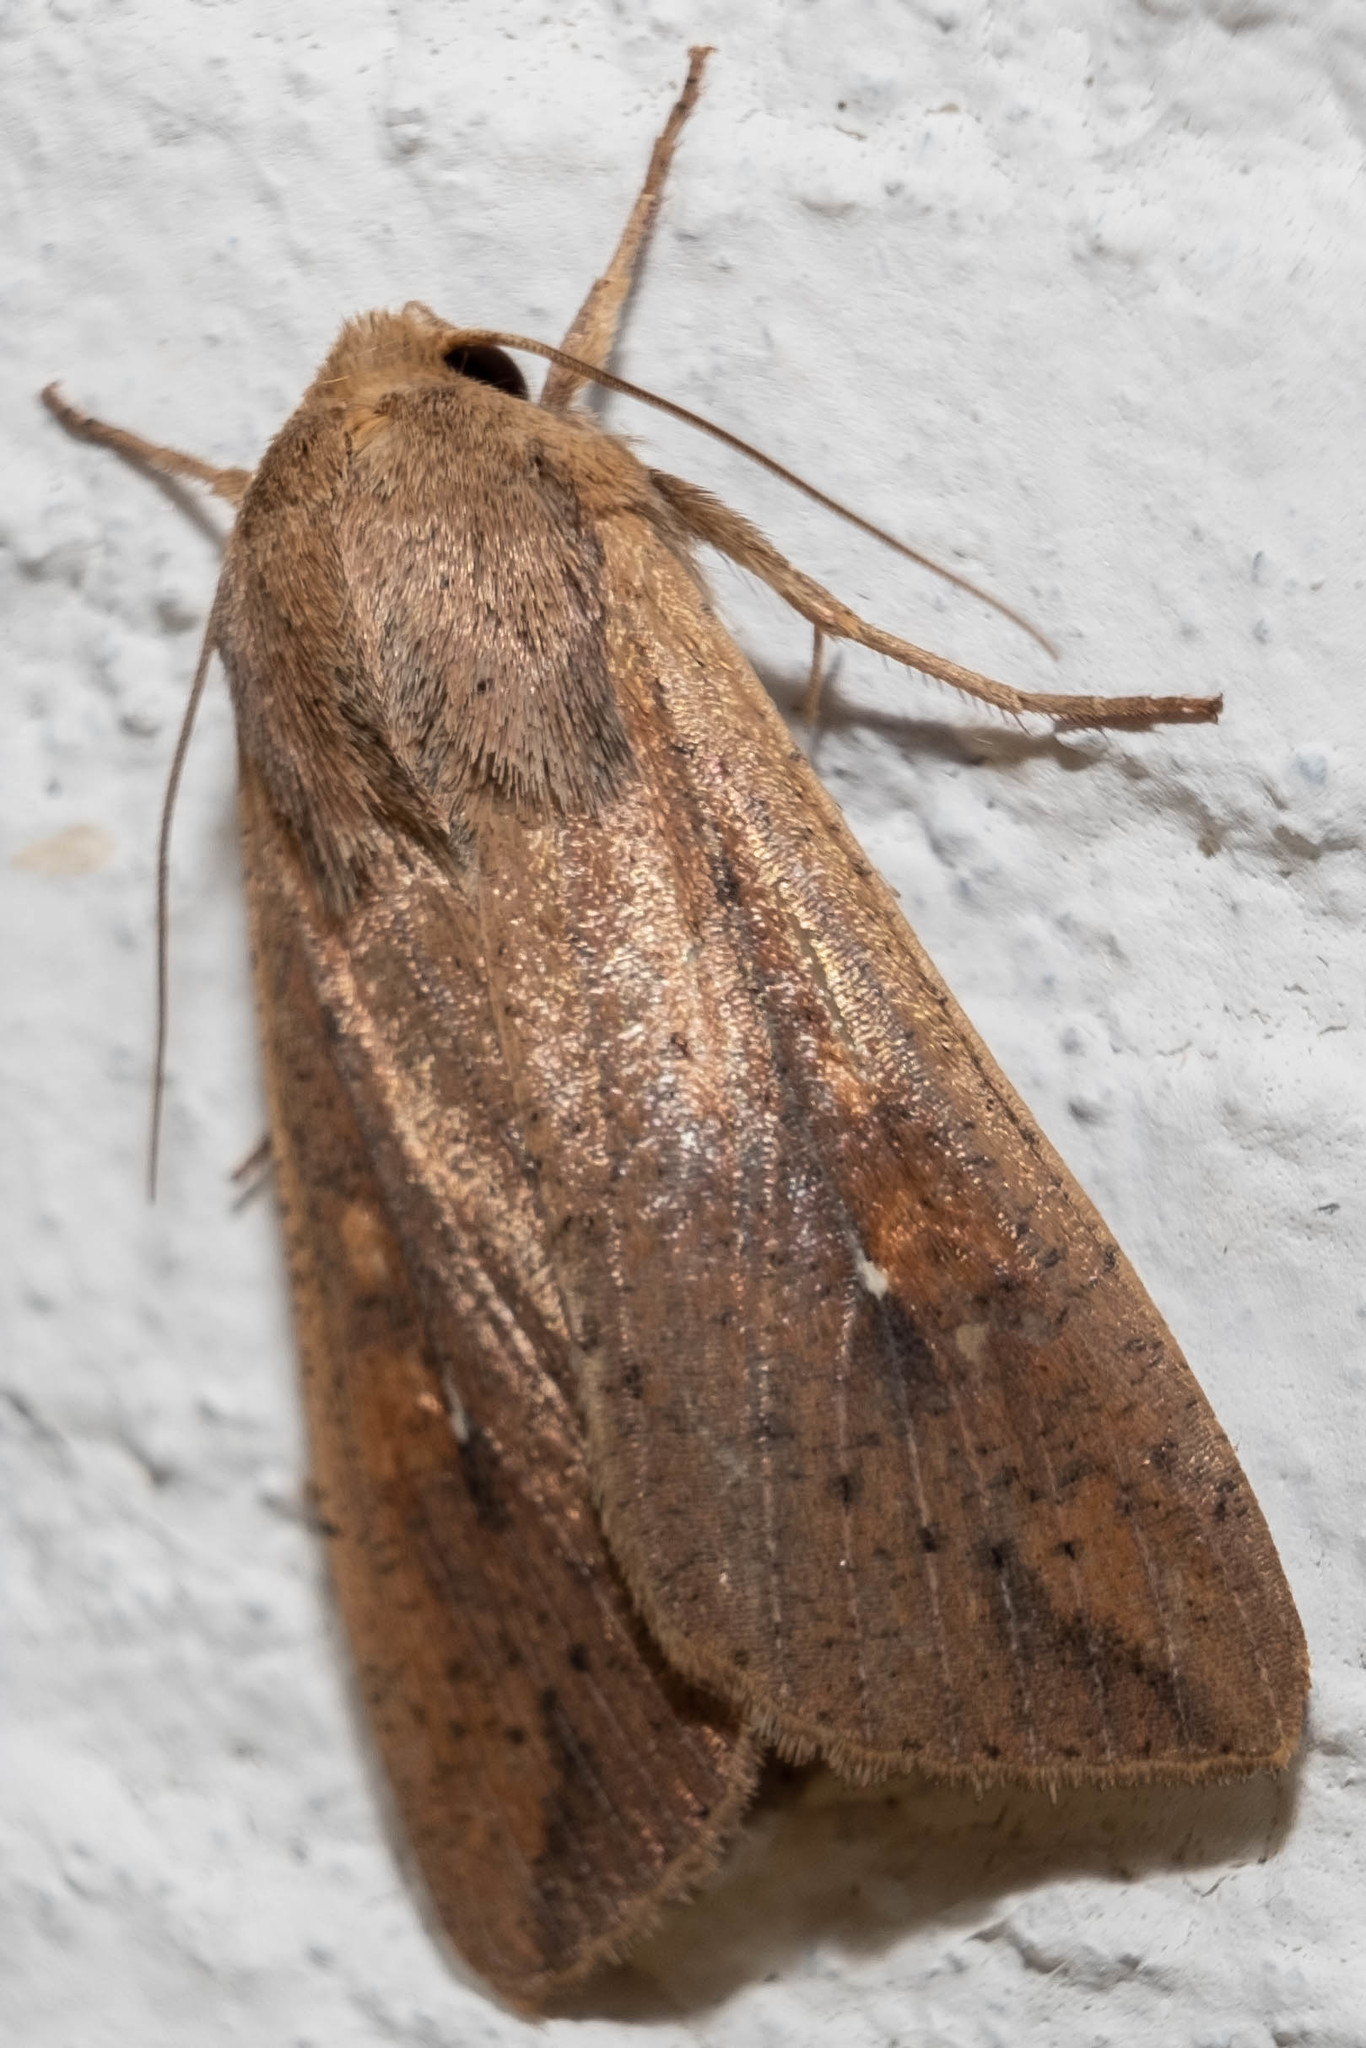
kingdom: Animalia
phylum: Arthropoda
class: Insecta
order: Lepidoptera
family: Noctuidae
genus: Mythimna
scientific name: Mythimna unipuncta
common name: White-speck
